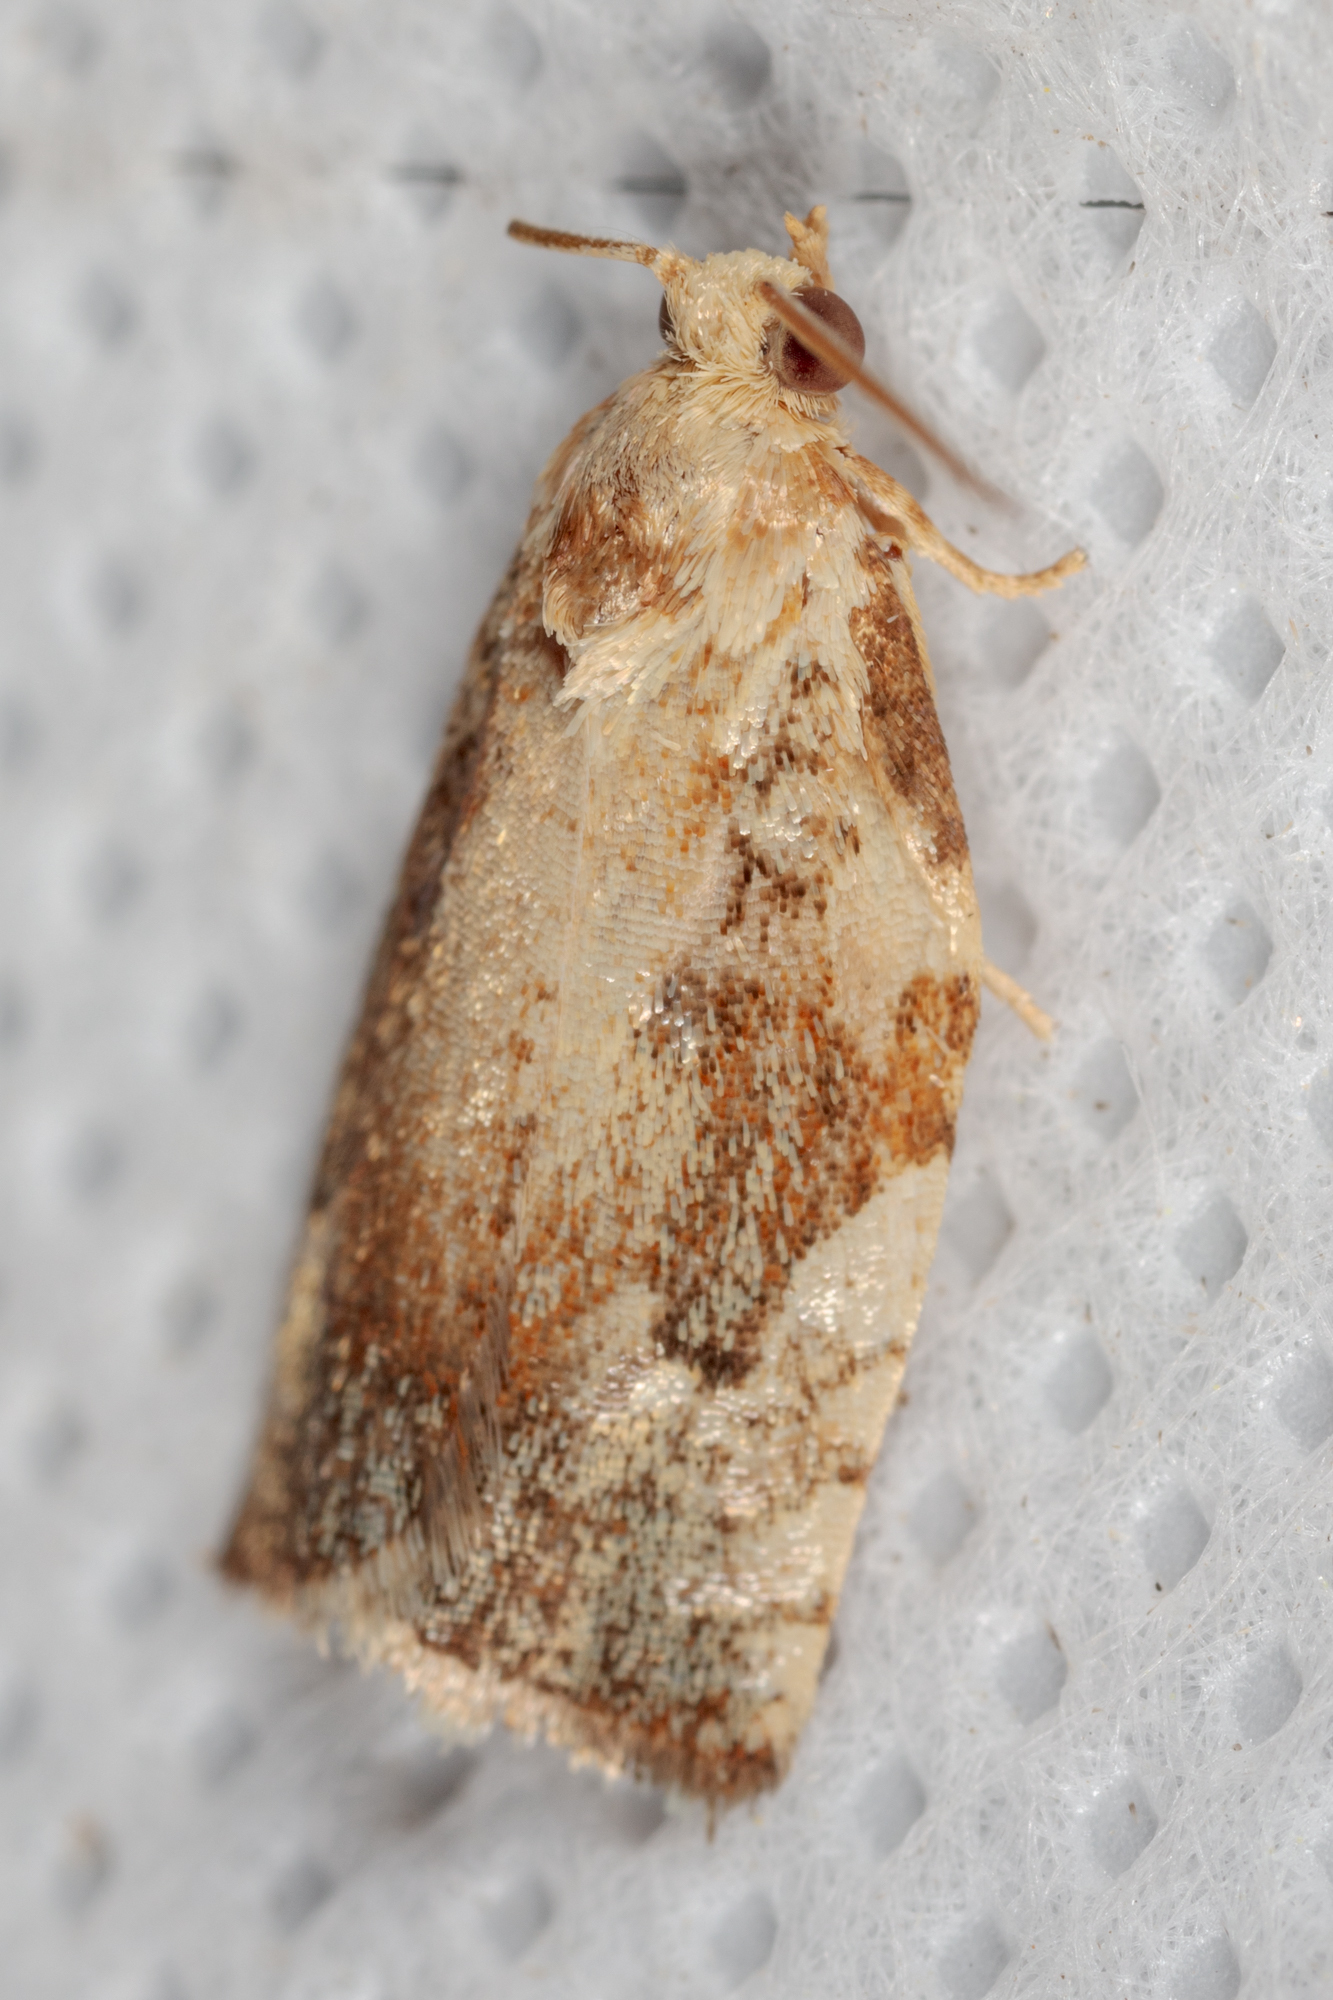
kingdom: Animalia
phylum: Arthropoda
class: Insecta
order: Lepidoptera
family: Tortricidae
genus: Archips
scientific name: Archips semiferanus
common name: Oak leafroller
